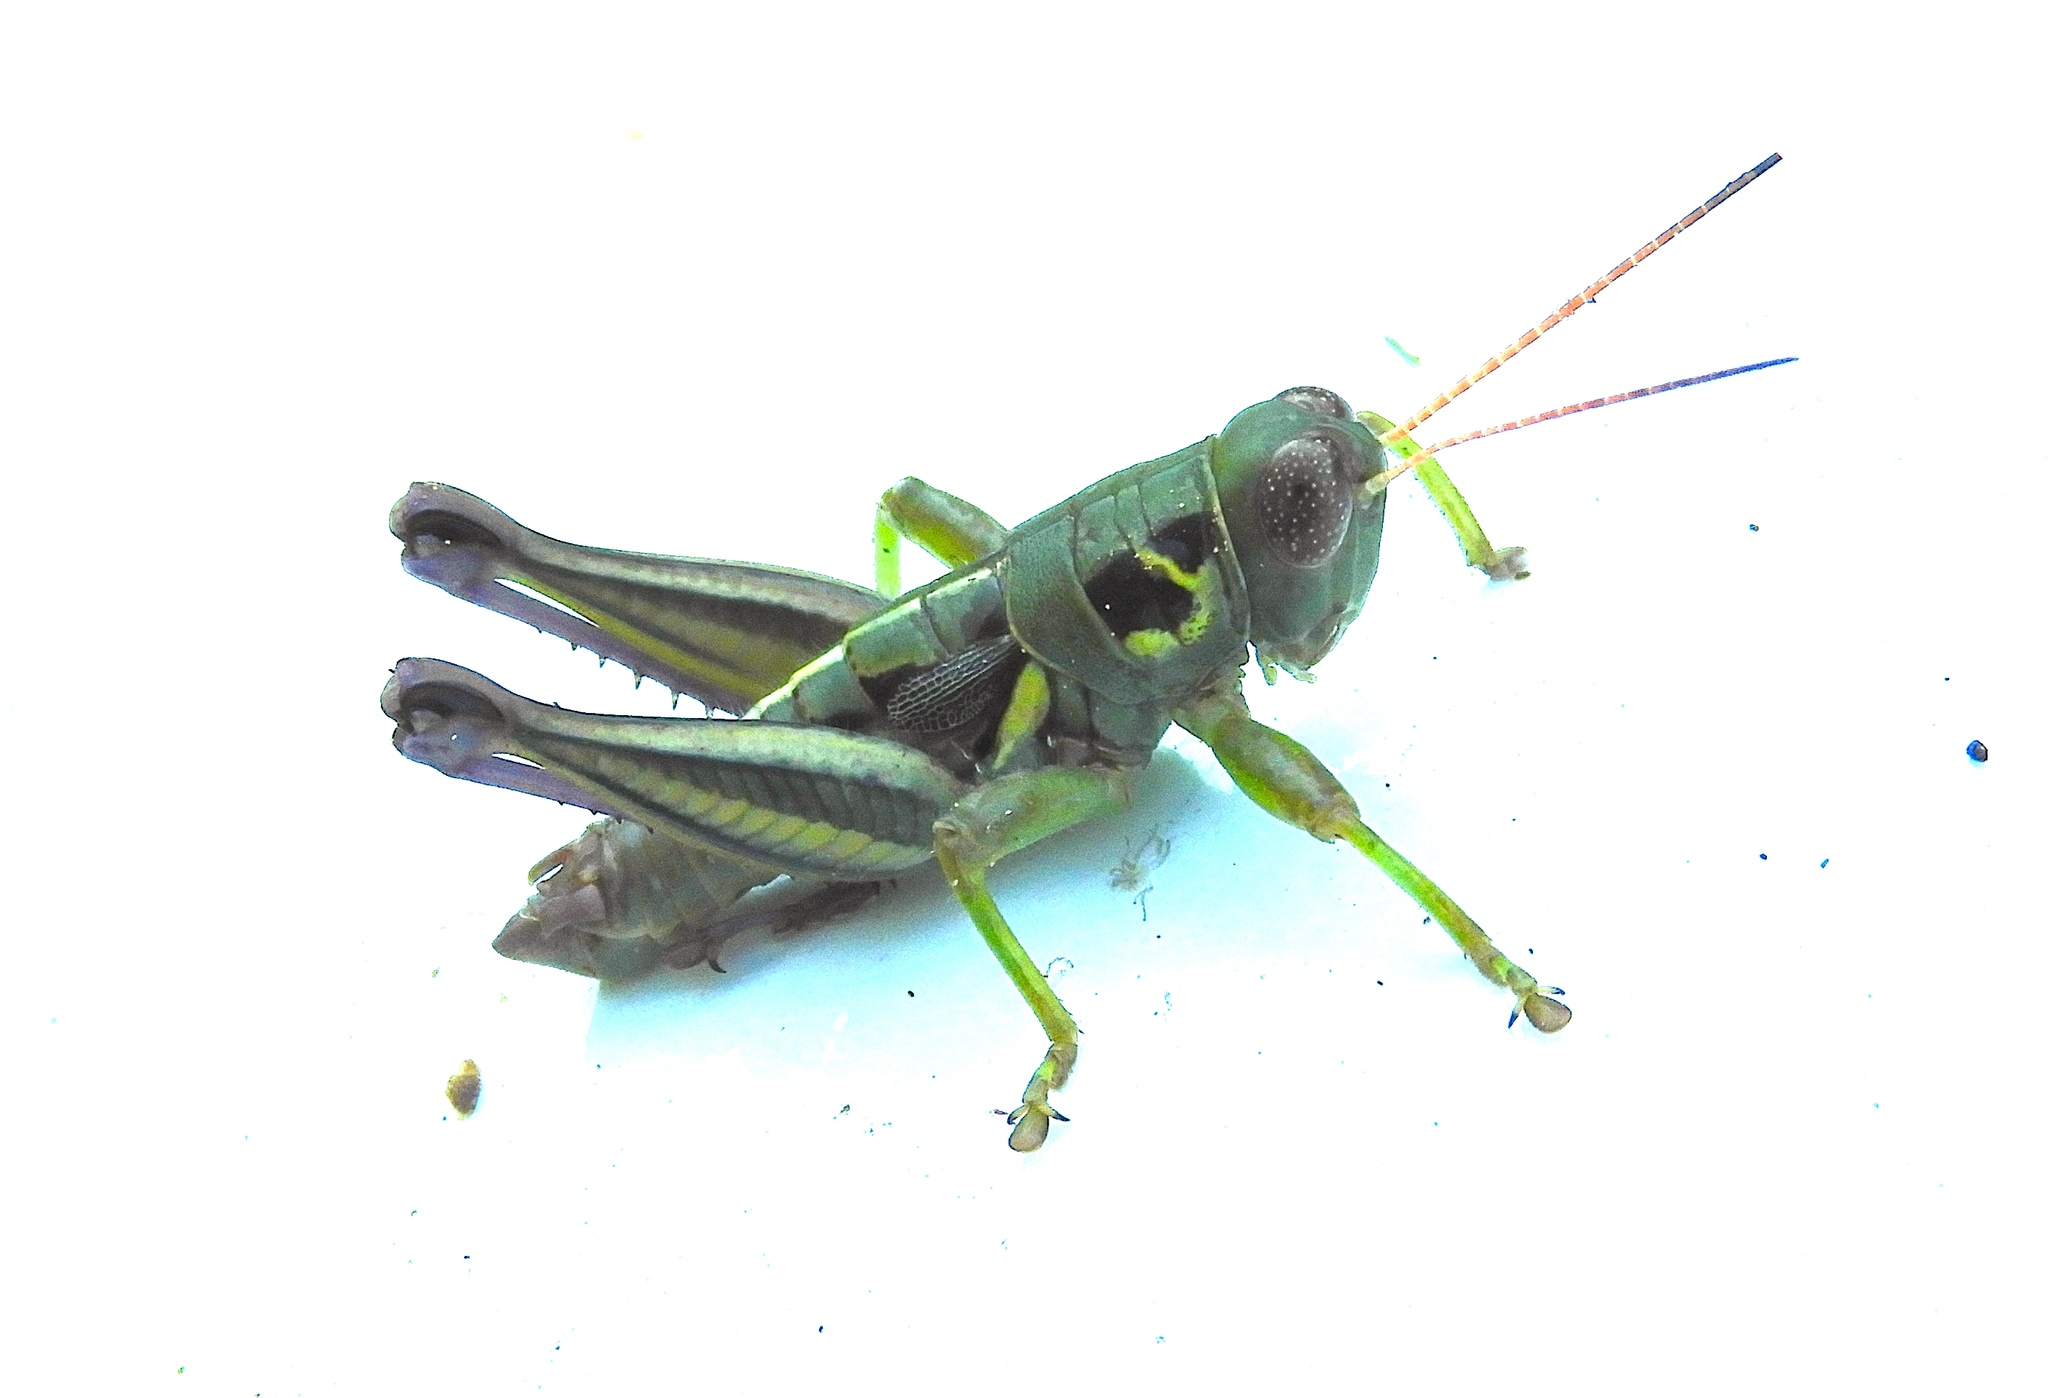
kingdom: Animalia
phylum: Arthropoda
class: Insecta
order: Orthoptera
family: Acrididae
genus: Barytettix
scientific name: Barytettix
